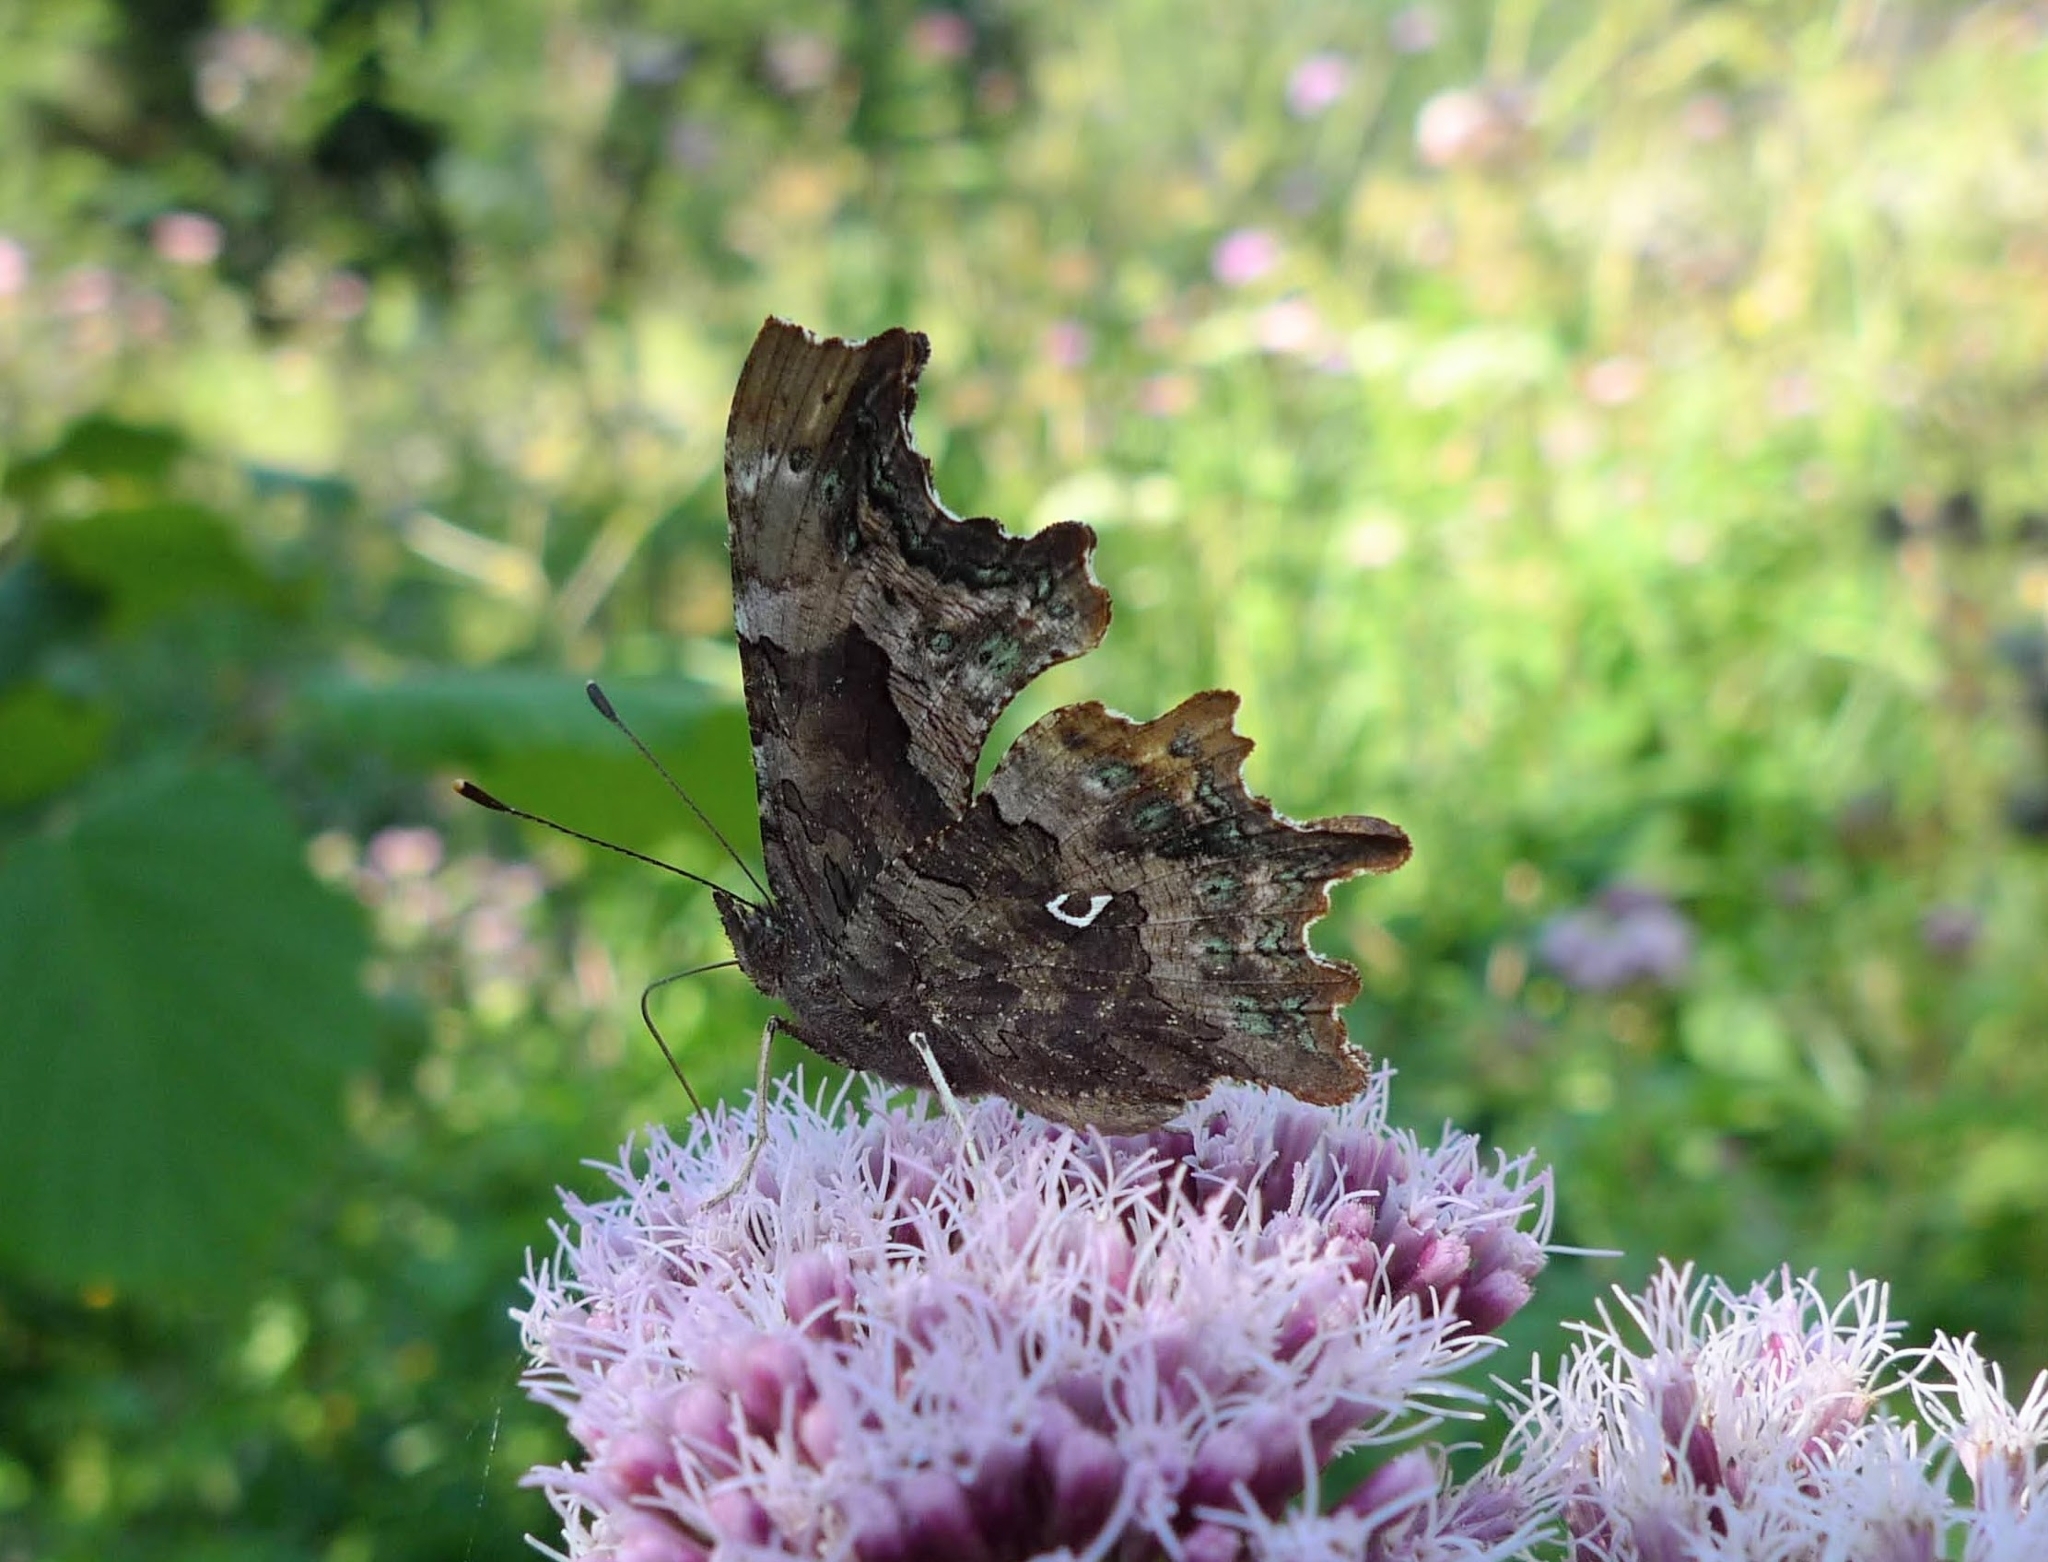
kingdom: Animalia
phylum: Arthropoda
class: Insecta
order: Lepidoptera
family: Nymphalidae
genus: Polygonia
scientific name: Polygonia c-album
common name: Comma
